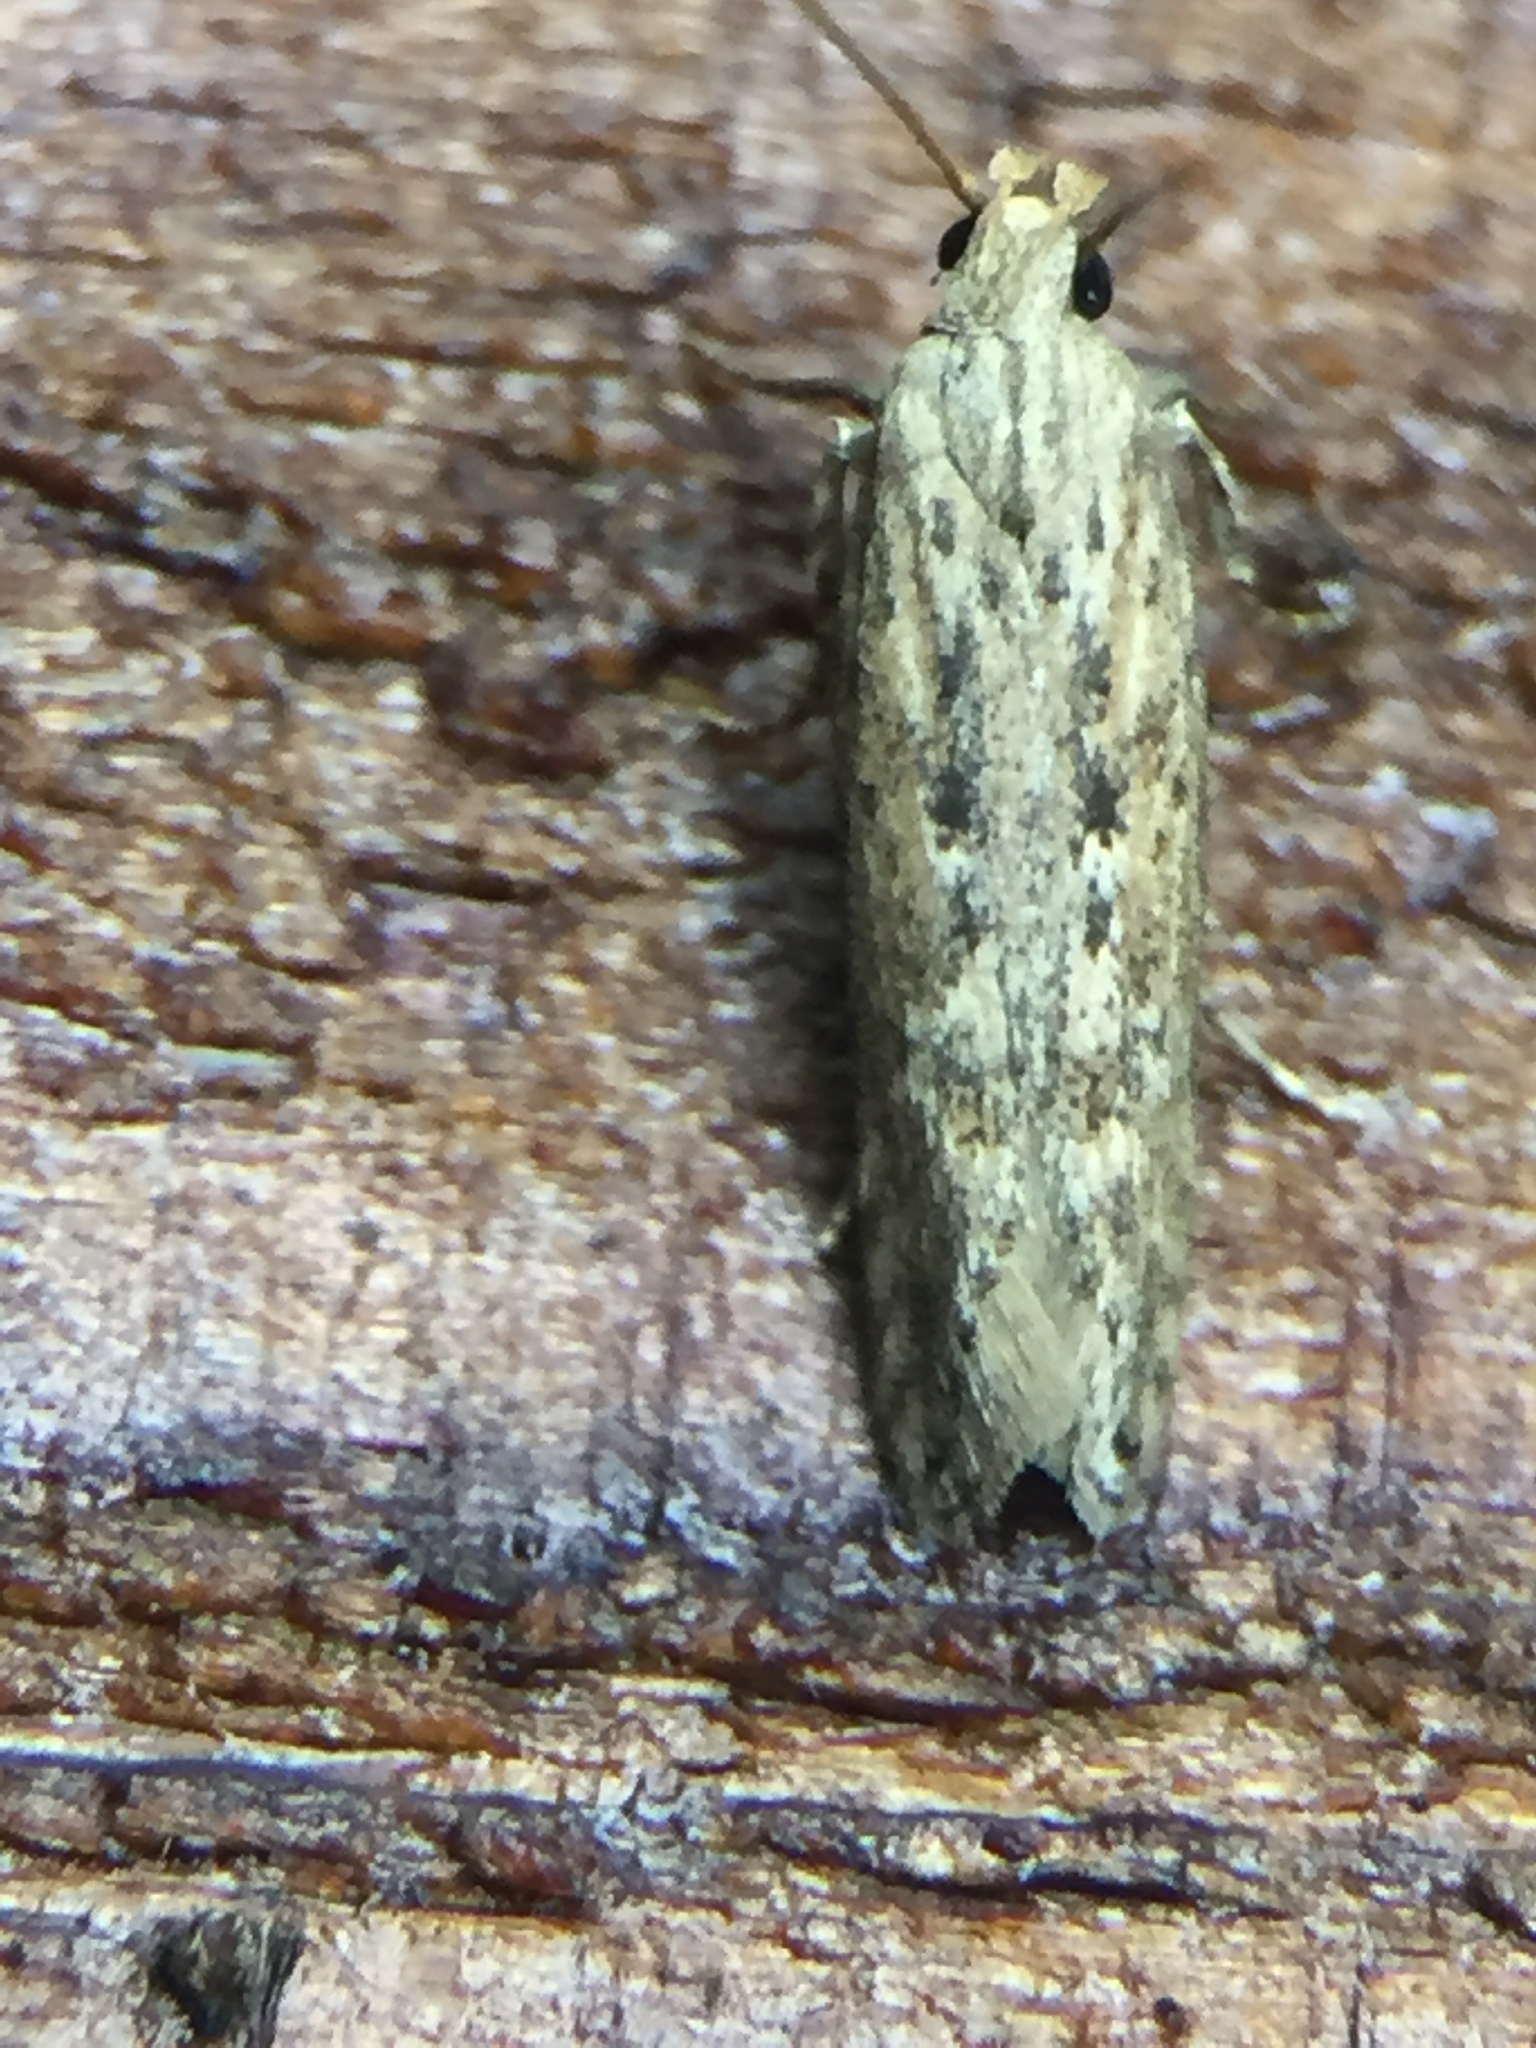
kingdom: Animalia
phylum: Arthropoda
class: Insecta
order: Lepidoptera
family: Gelechiidae
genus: Phthorimaea
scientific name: Phthorimaea operculella
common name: Potato tuber moth
